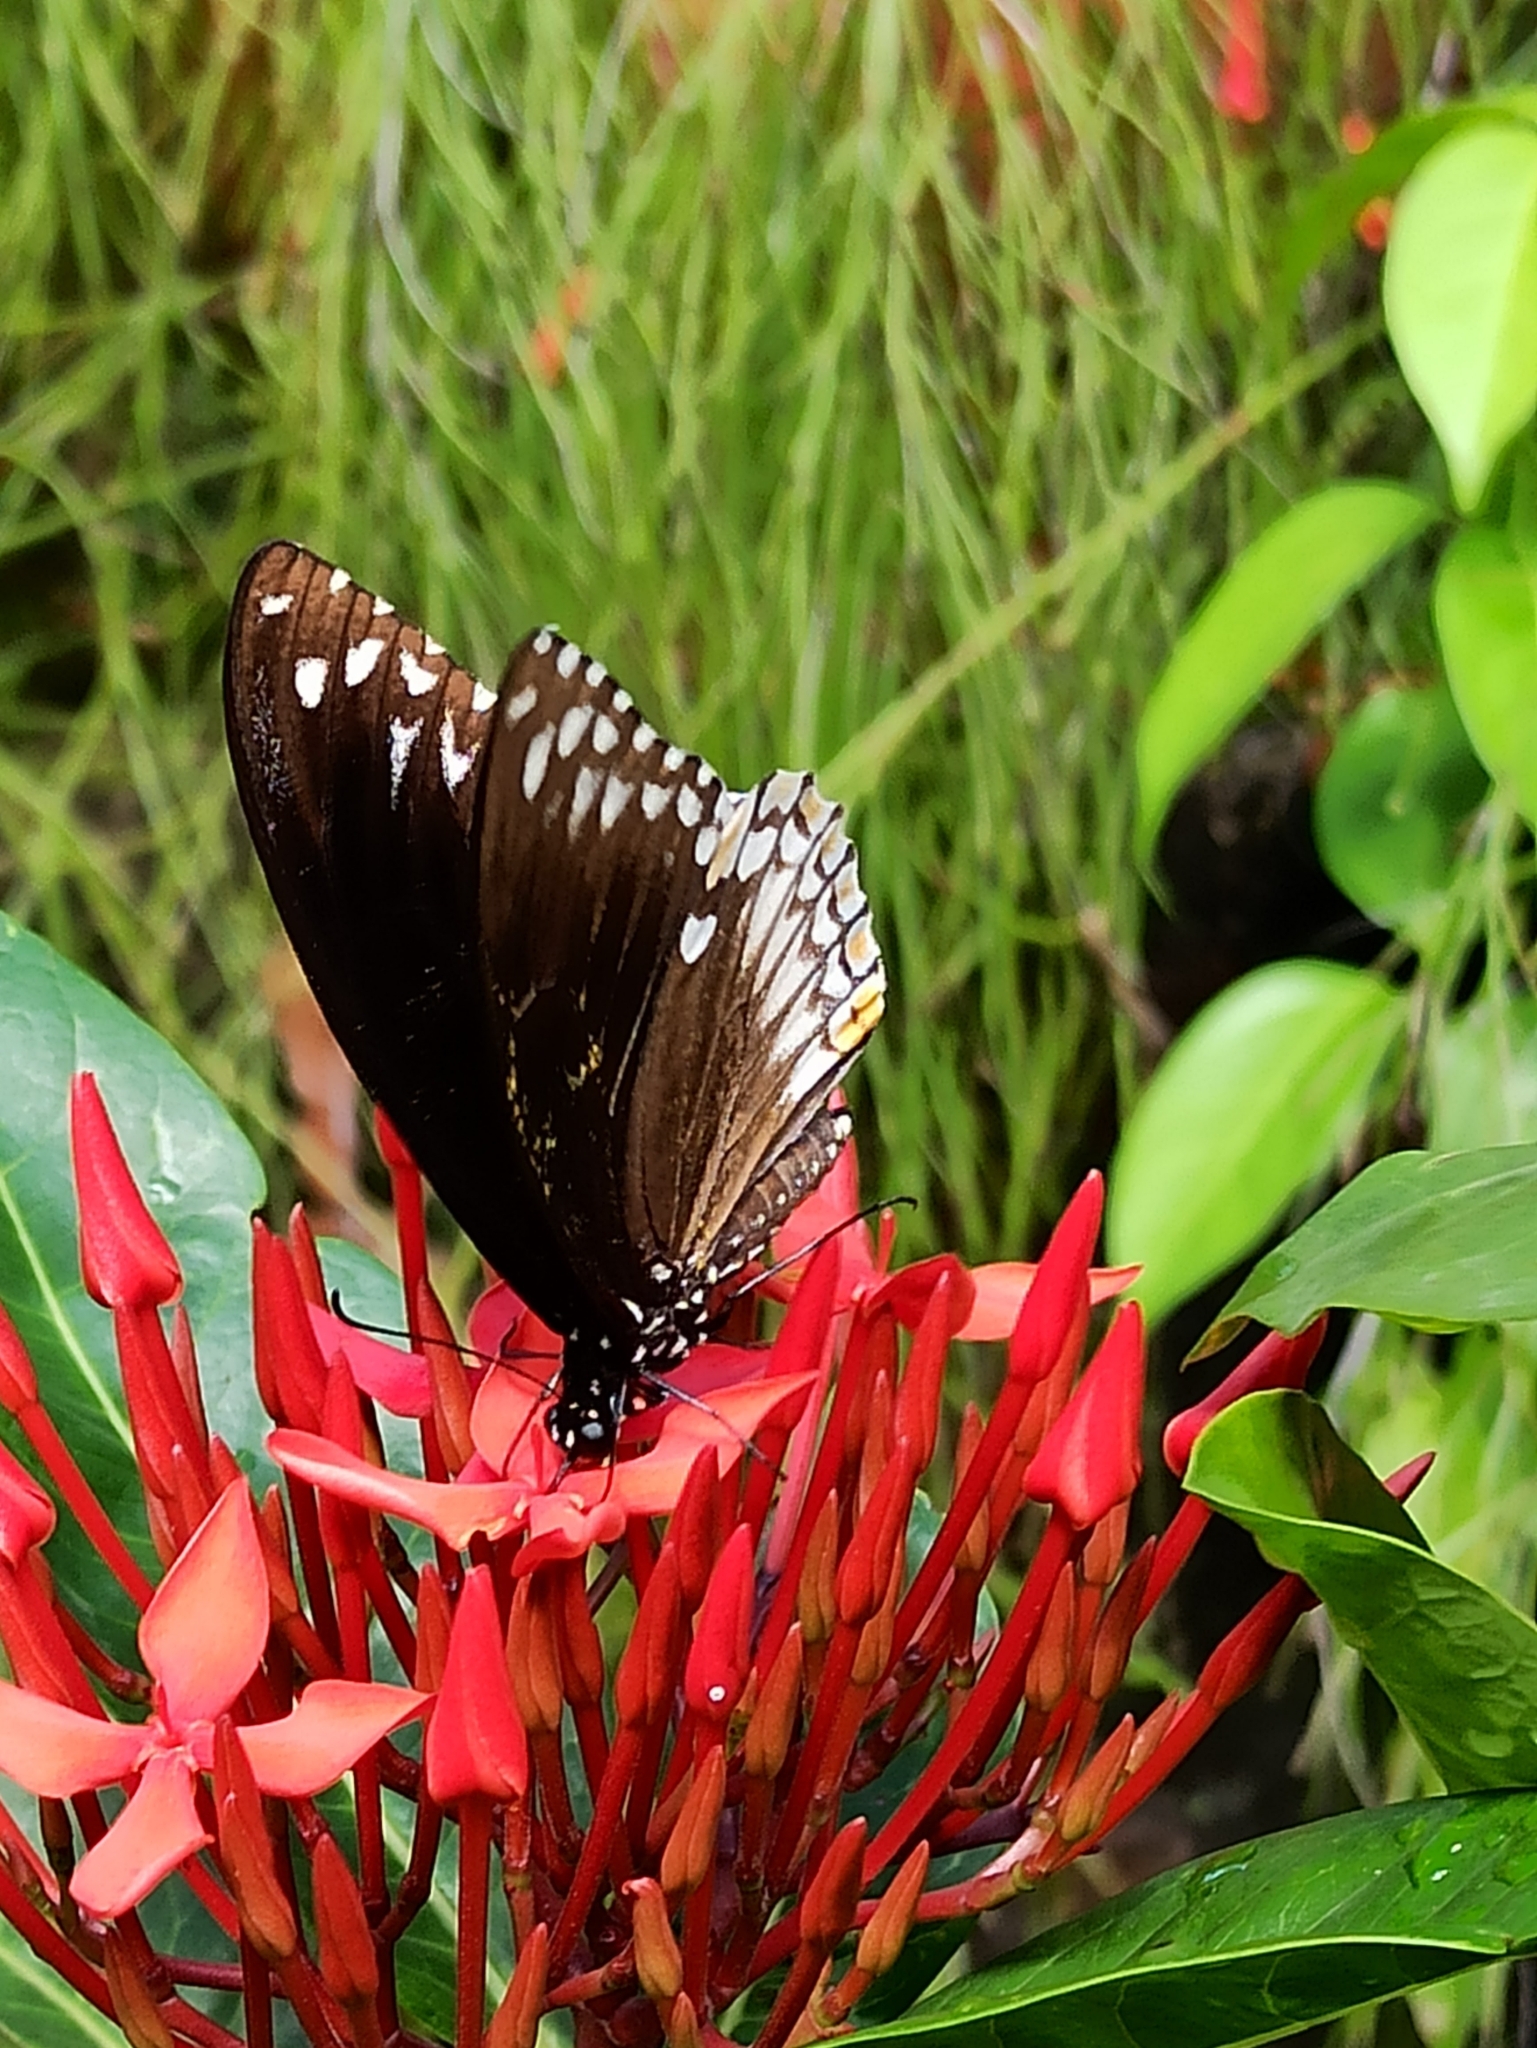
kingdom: Animalia
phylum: Arthropoda
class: Insecta
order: Lepidoptera
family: Papilionidae
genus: Chilasa
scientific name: Chilasa clytia
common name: Common mime
